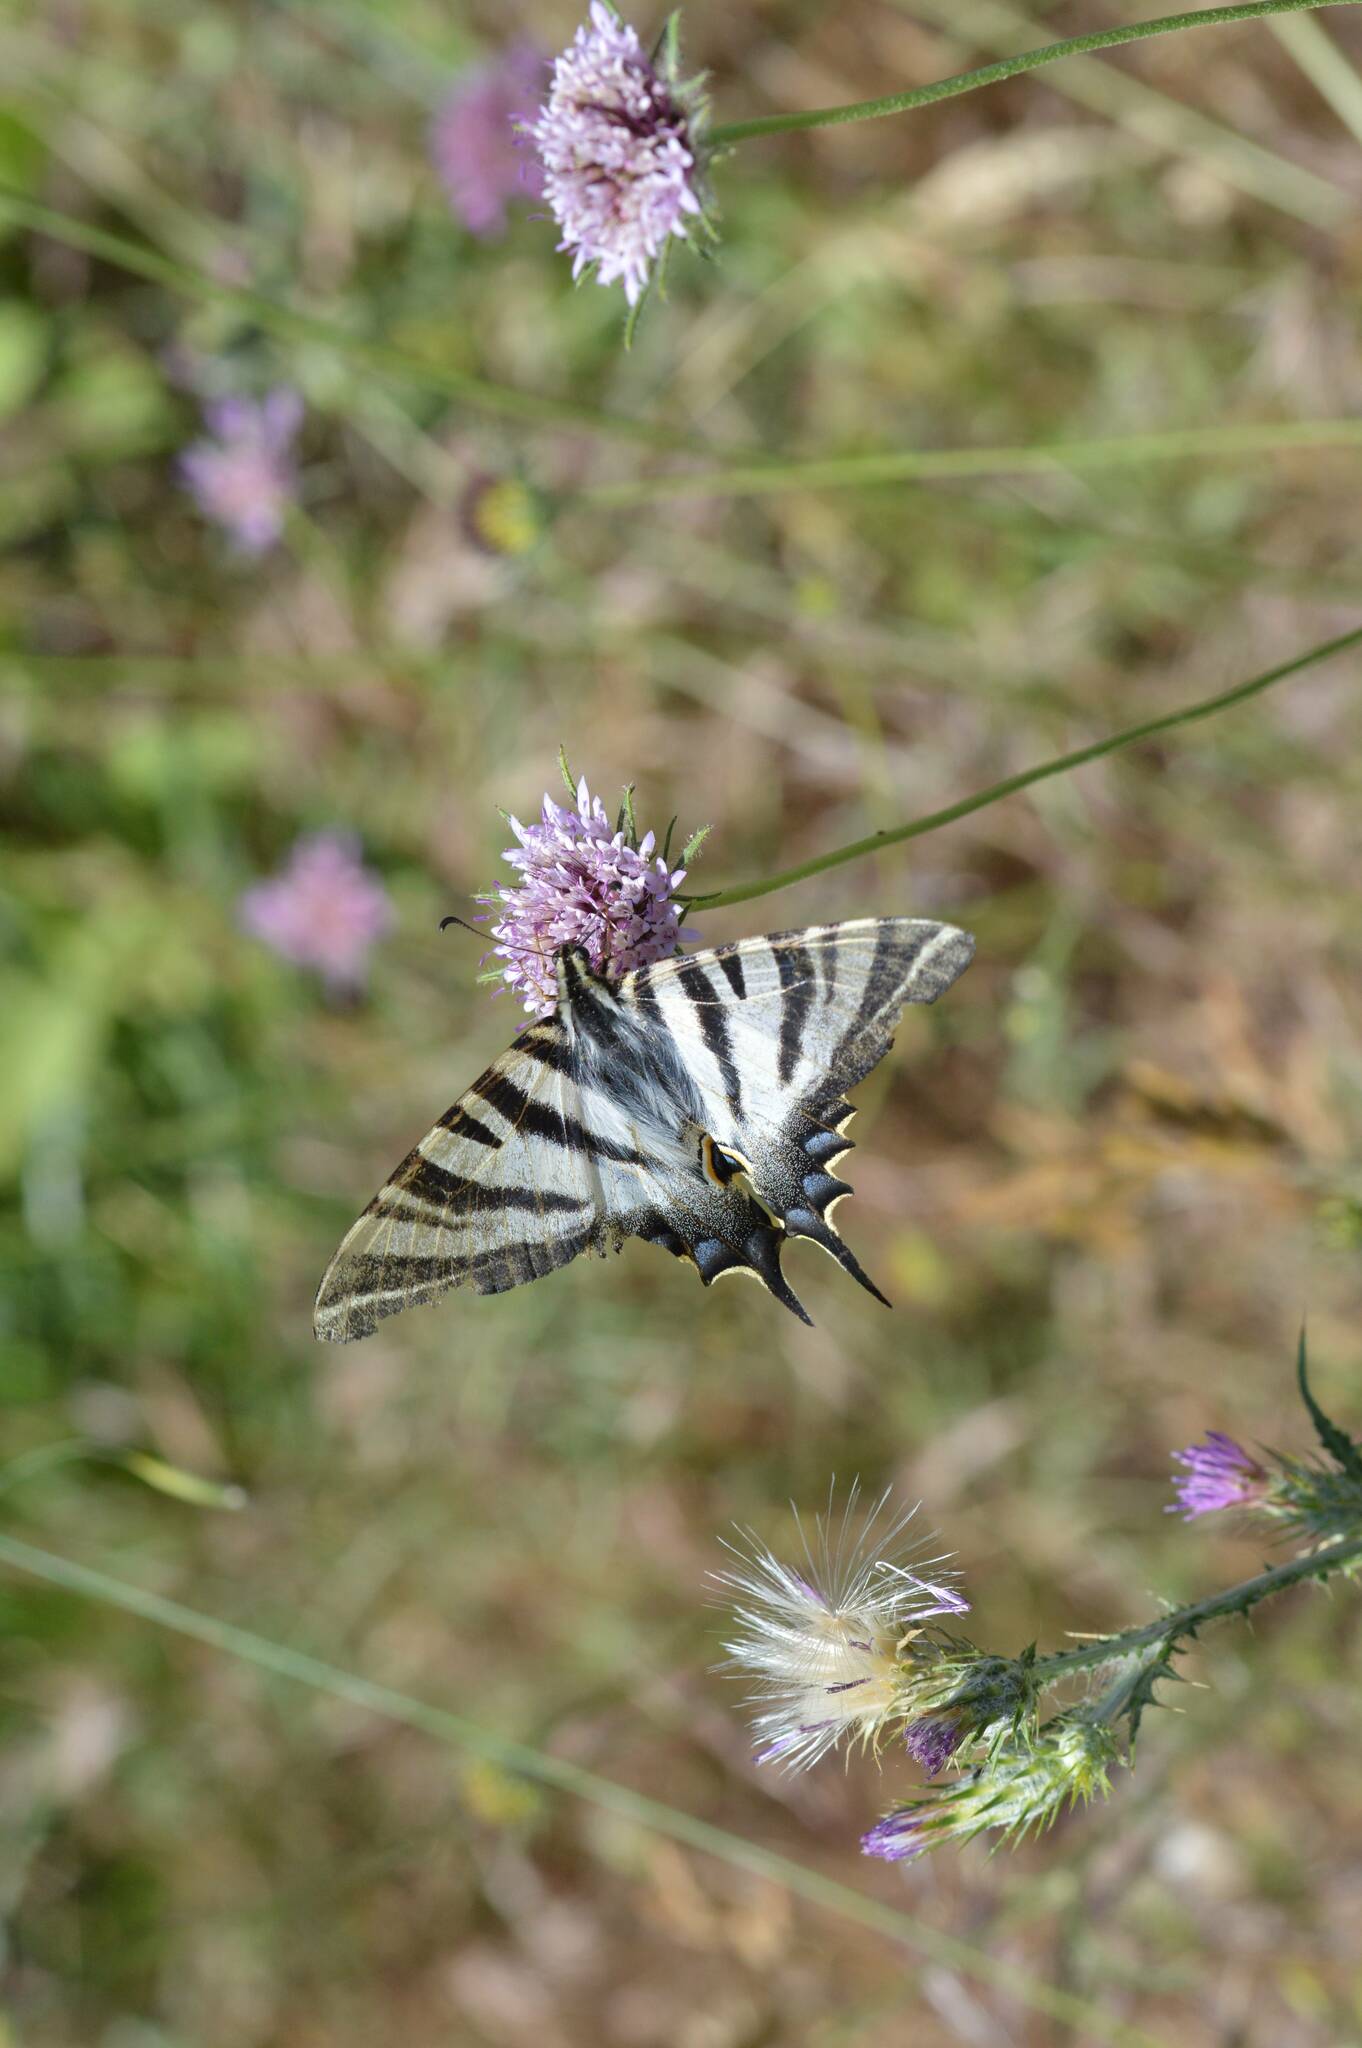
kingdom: Animalia
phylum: Arthropoda
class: Insecta
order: Lepidoptera
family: Papilionidae
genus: Iphiclides
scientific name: Iphiclides feisthamelii
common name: Iberian scarce swallowtail
